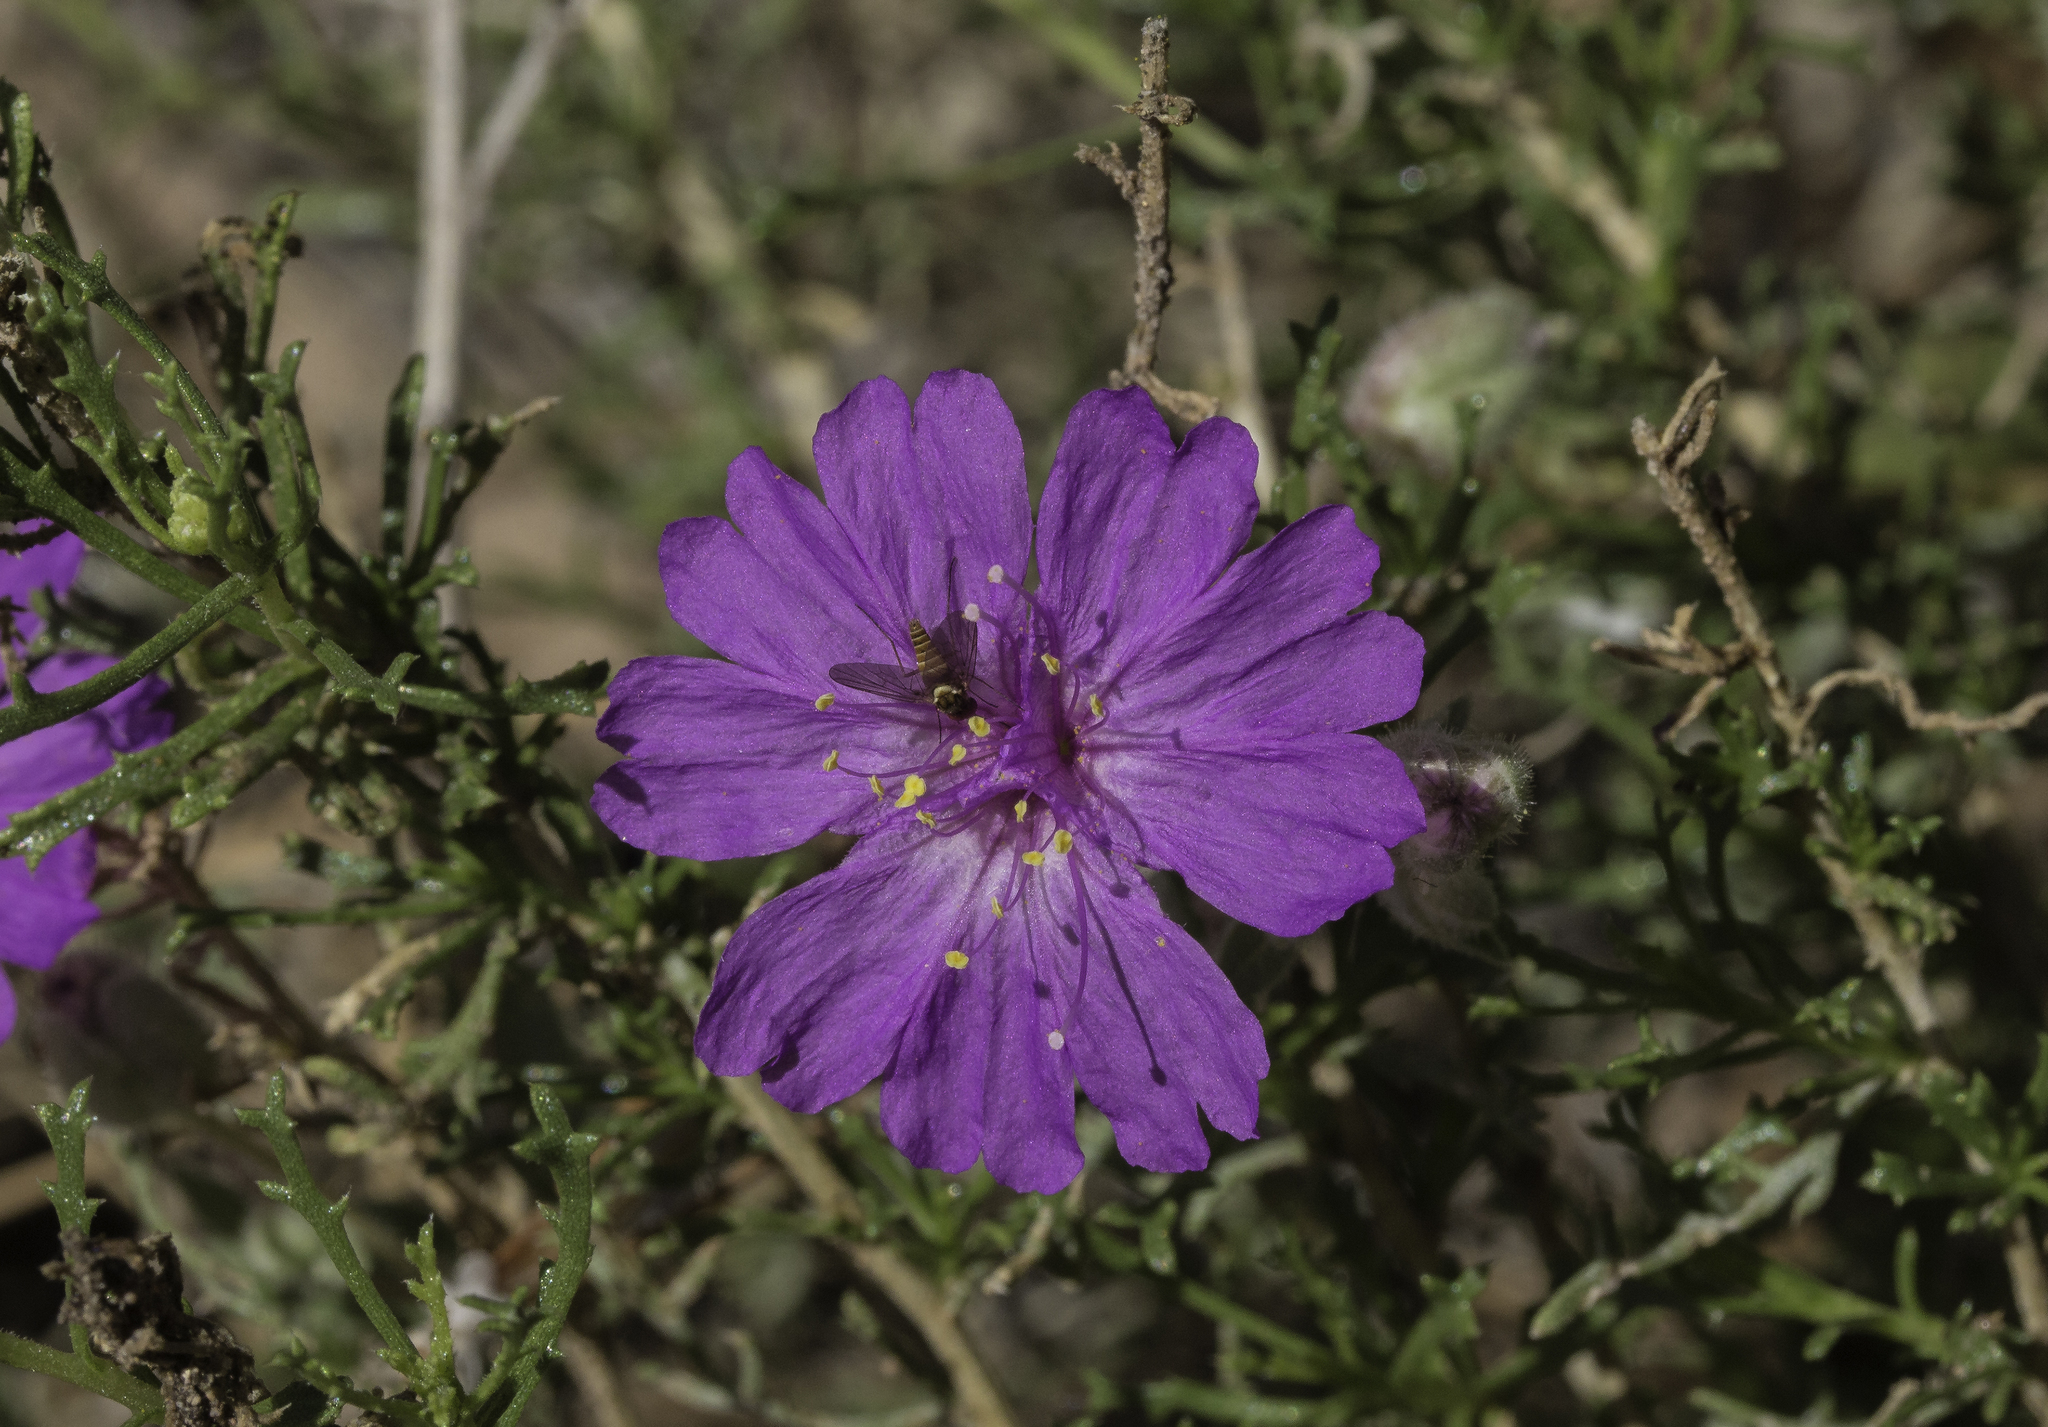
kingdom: Plantae
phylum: Tracheophyta
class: Magnoliopsida
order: Caryophyllales
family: Nyctaginaceae
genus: Allionia
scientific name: Allionia incarnata
